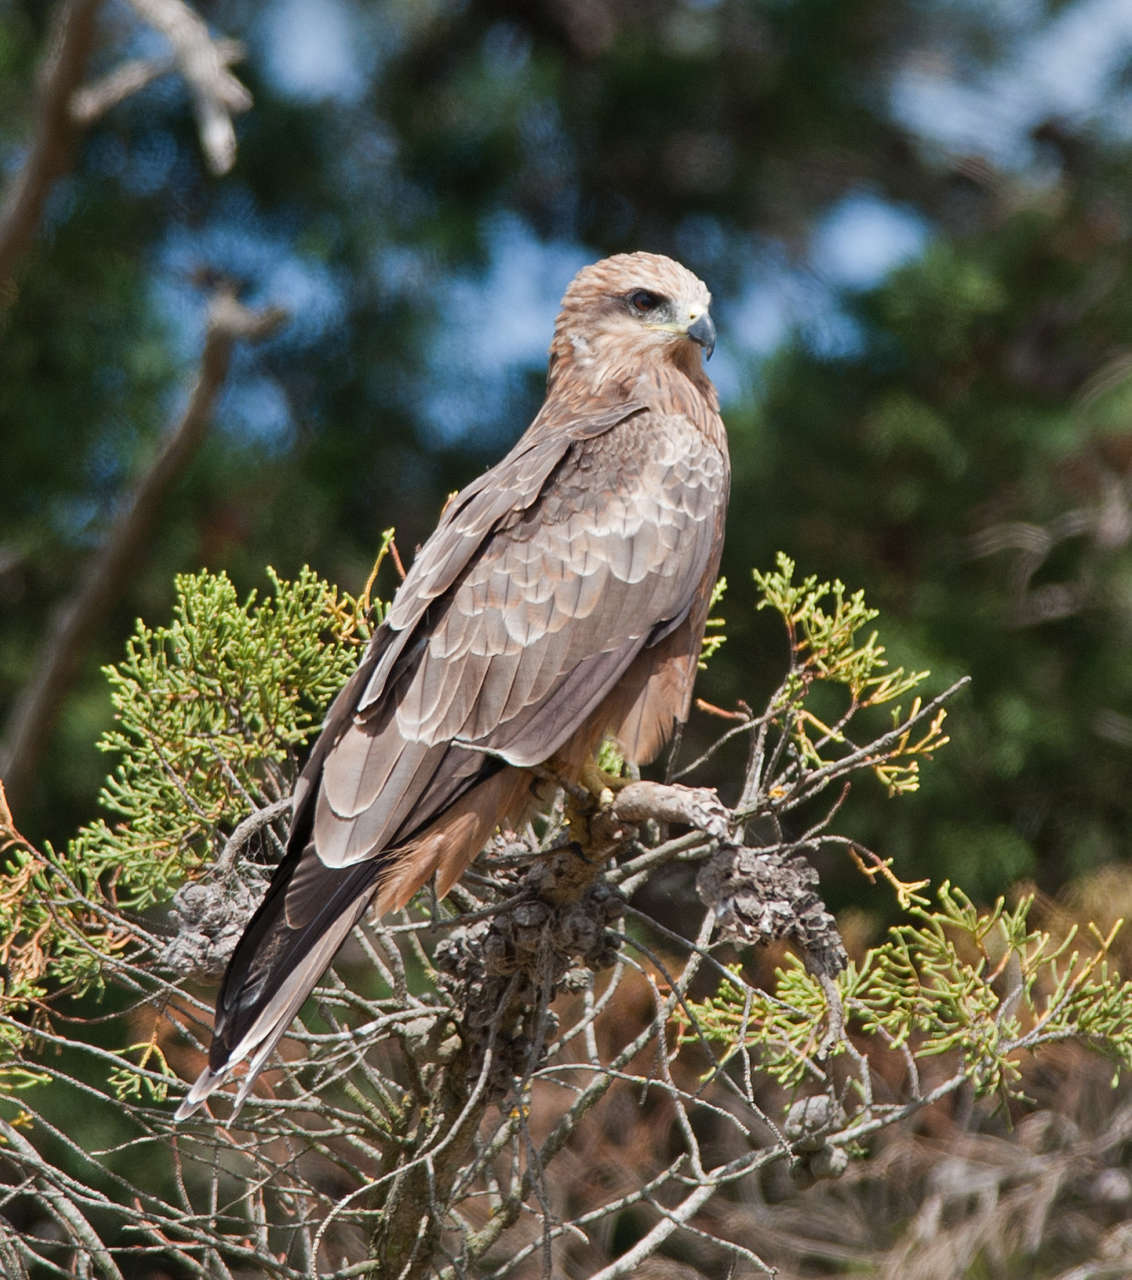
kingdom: Animalia
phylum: Chordata
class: Aves
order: Accipitriformes
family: Accipitridae
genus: Milvus
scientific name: Milvus migrans
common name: Black kite
